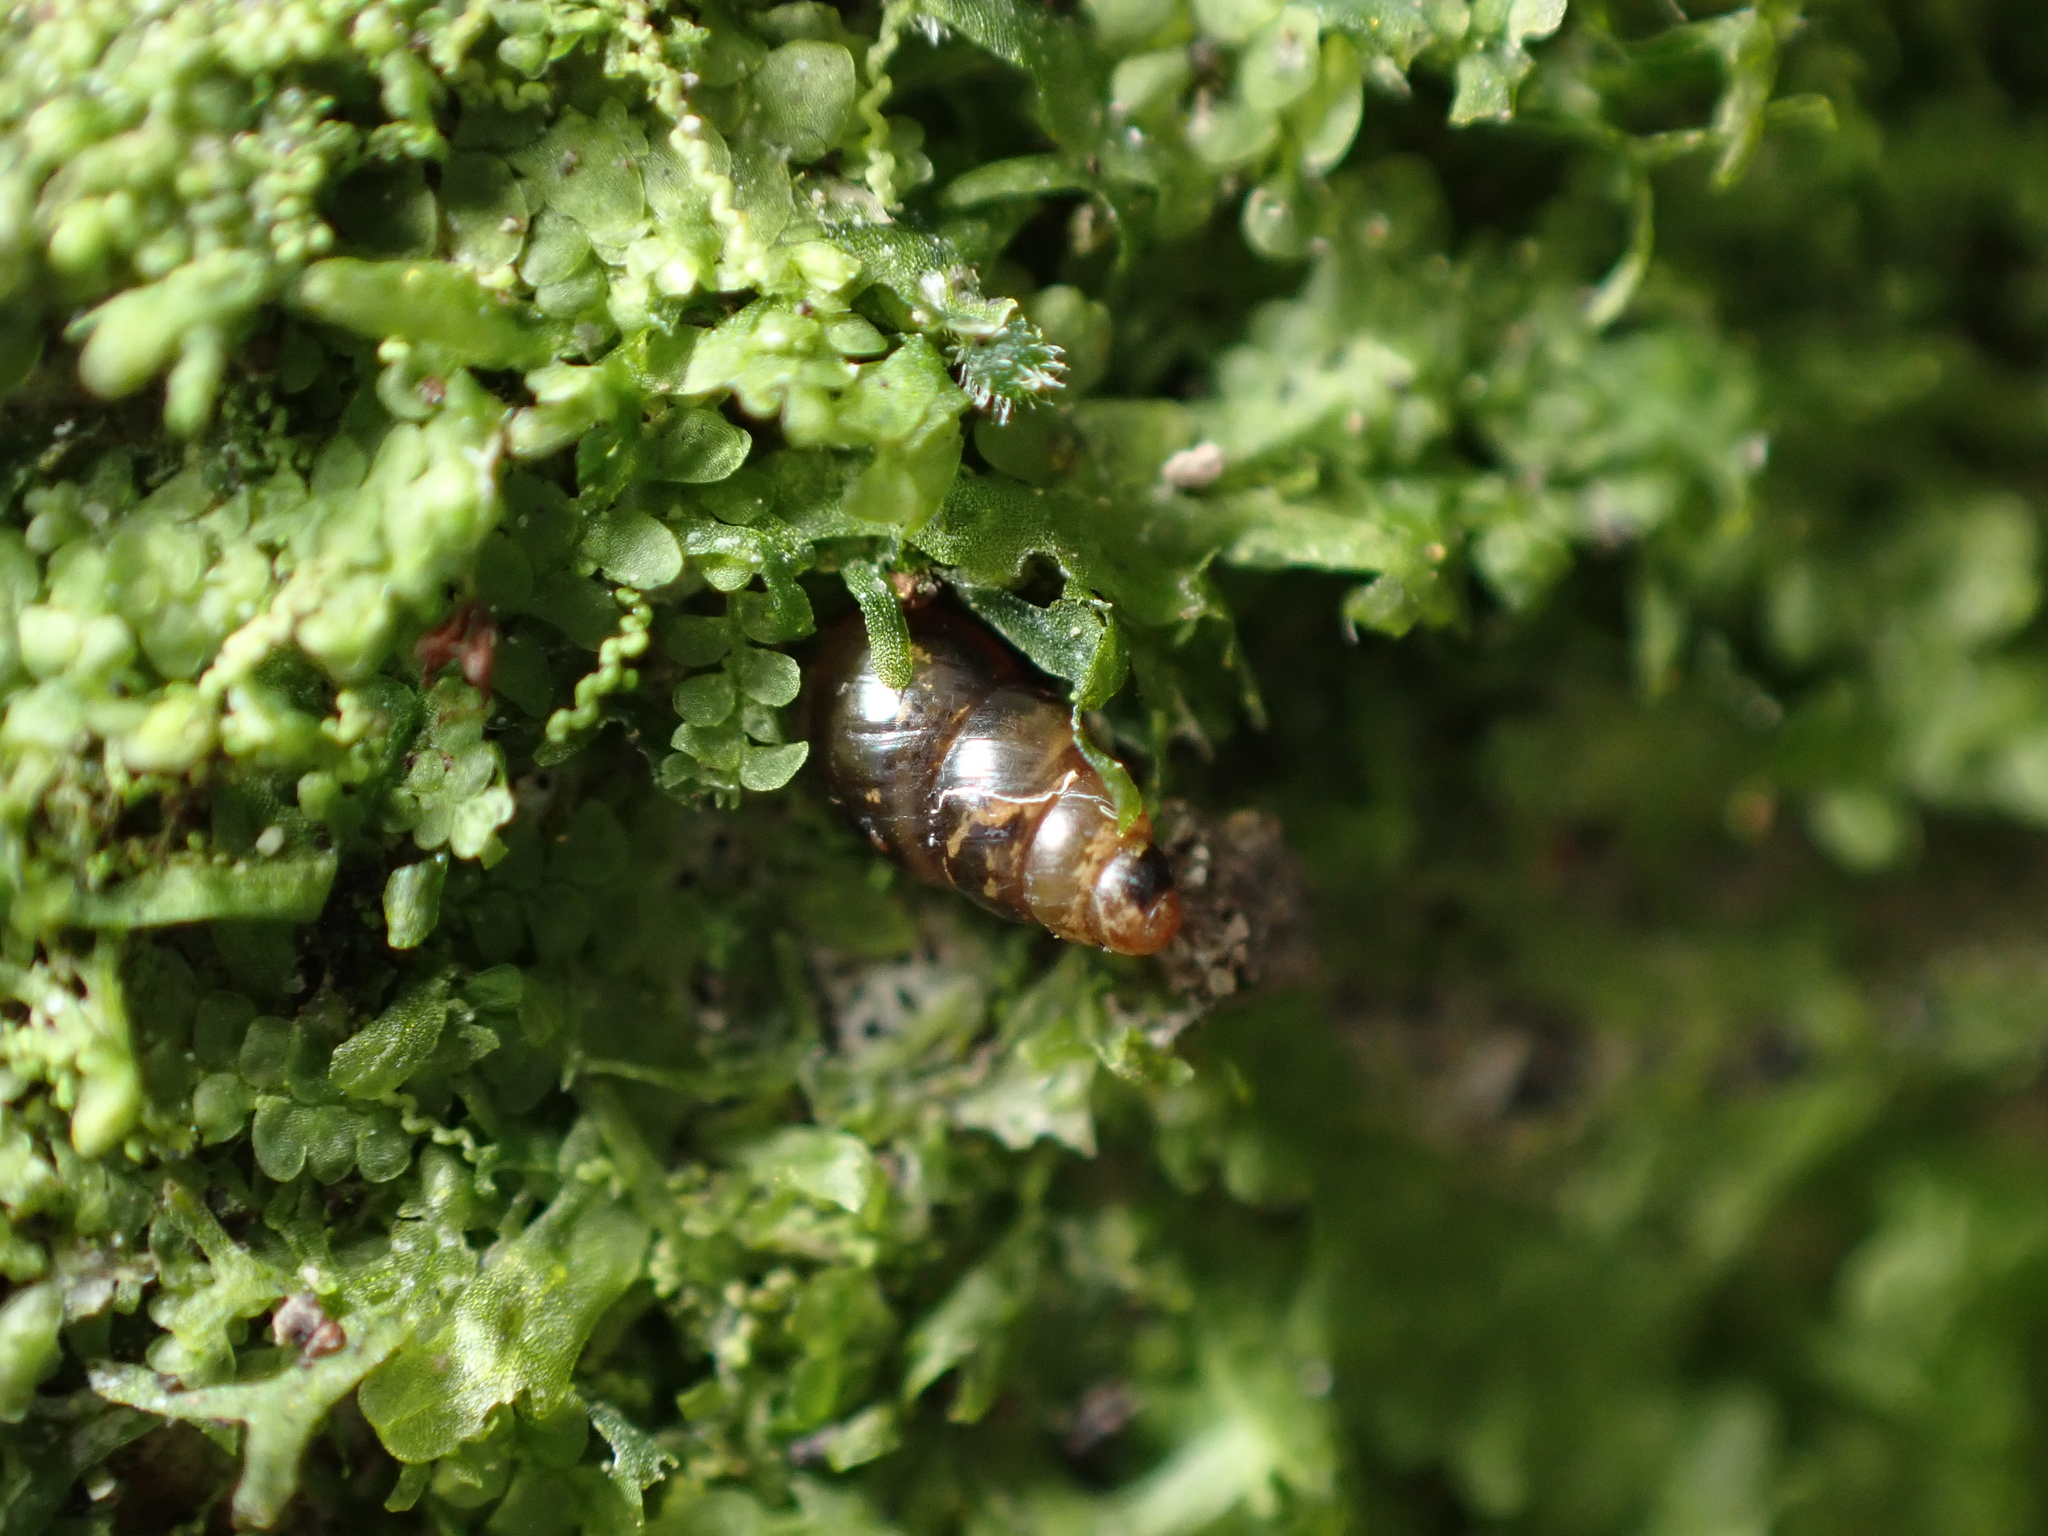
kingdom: Animalia
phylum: Mollusca
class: Gastropoda
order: Stylommatophora
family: Achatinellidae
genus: Tornatellinops
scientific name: Tornatellinops novoseelandicus
